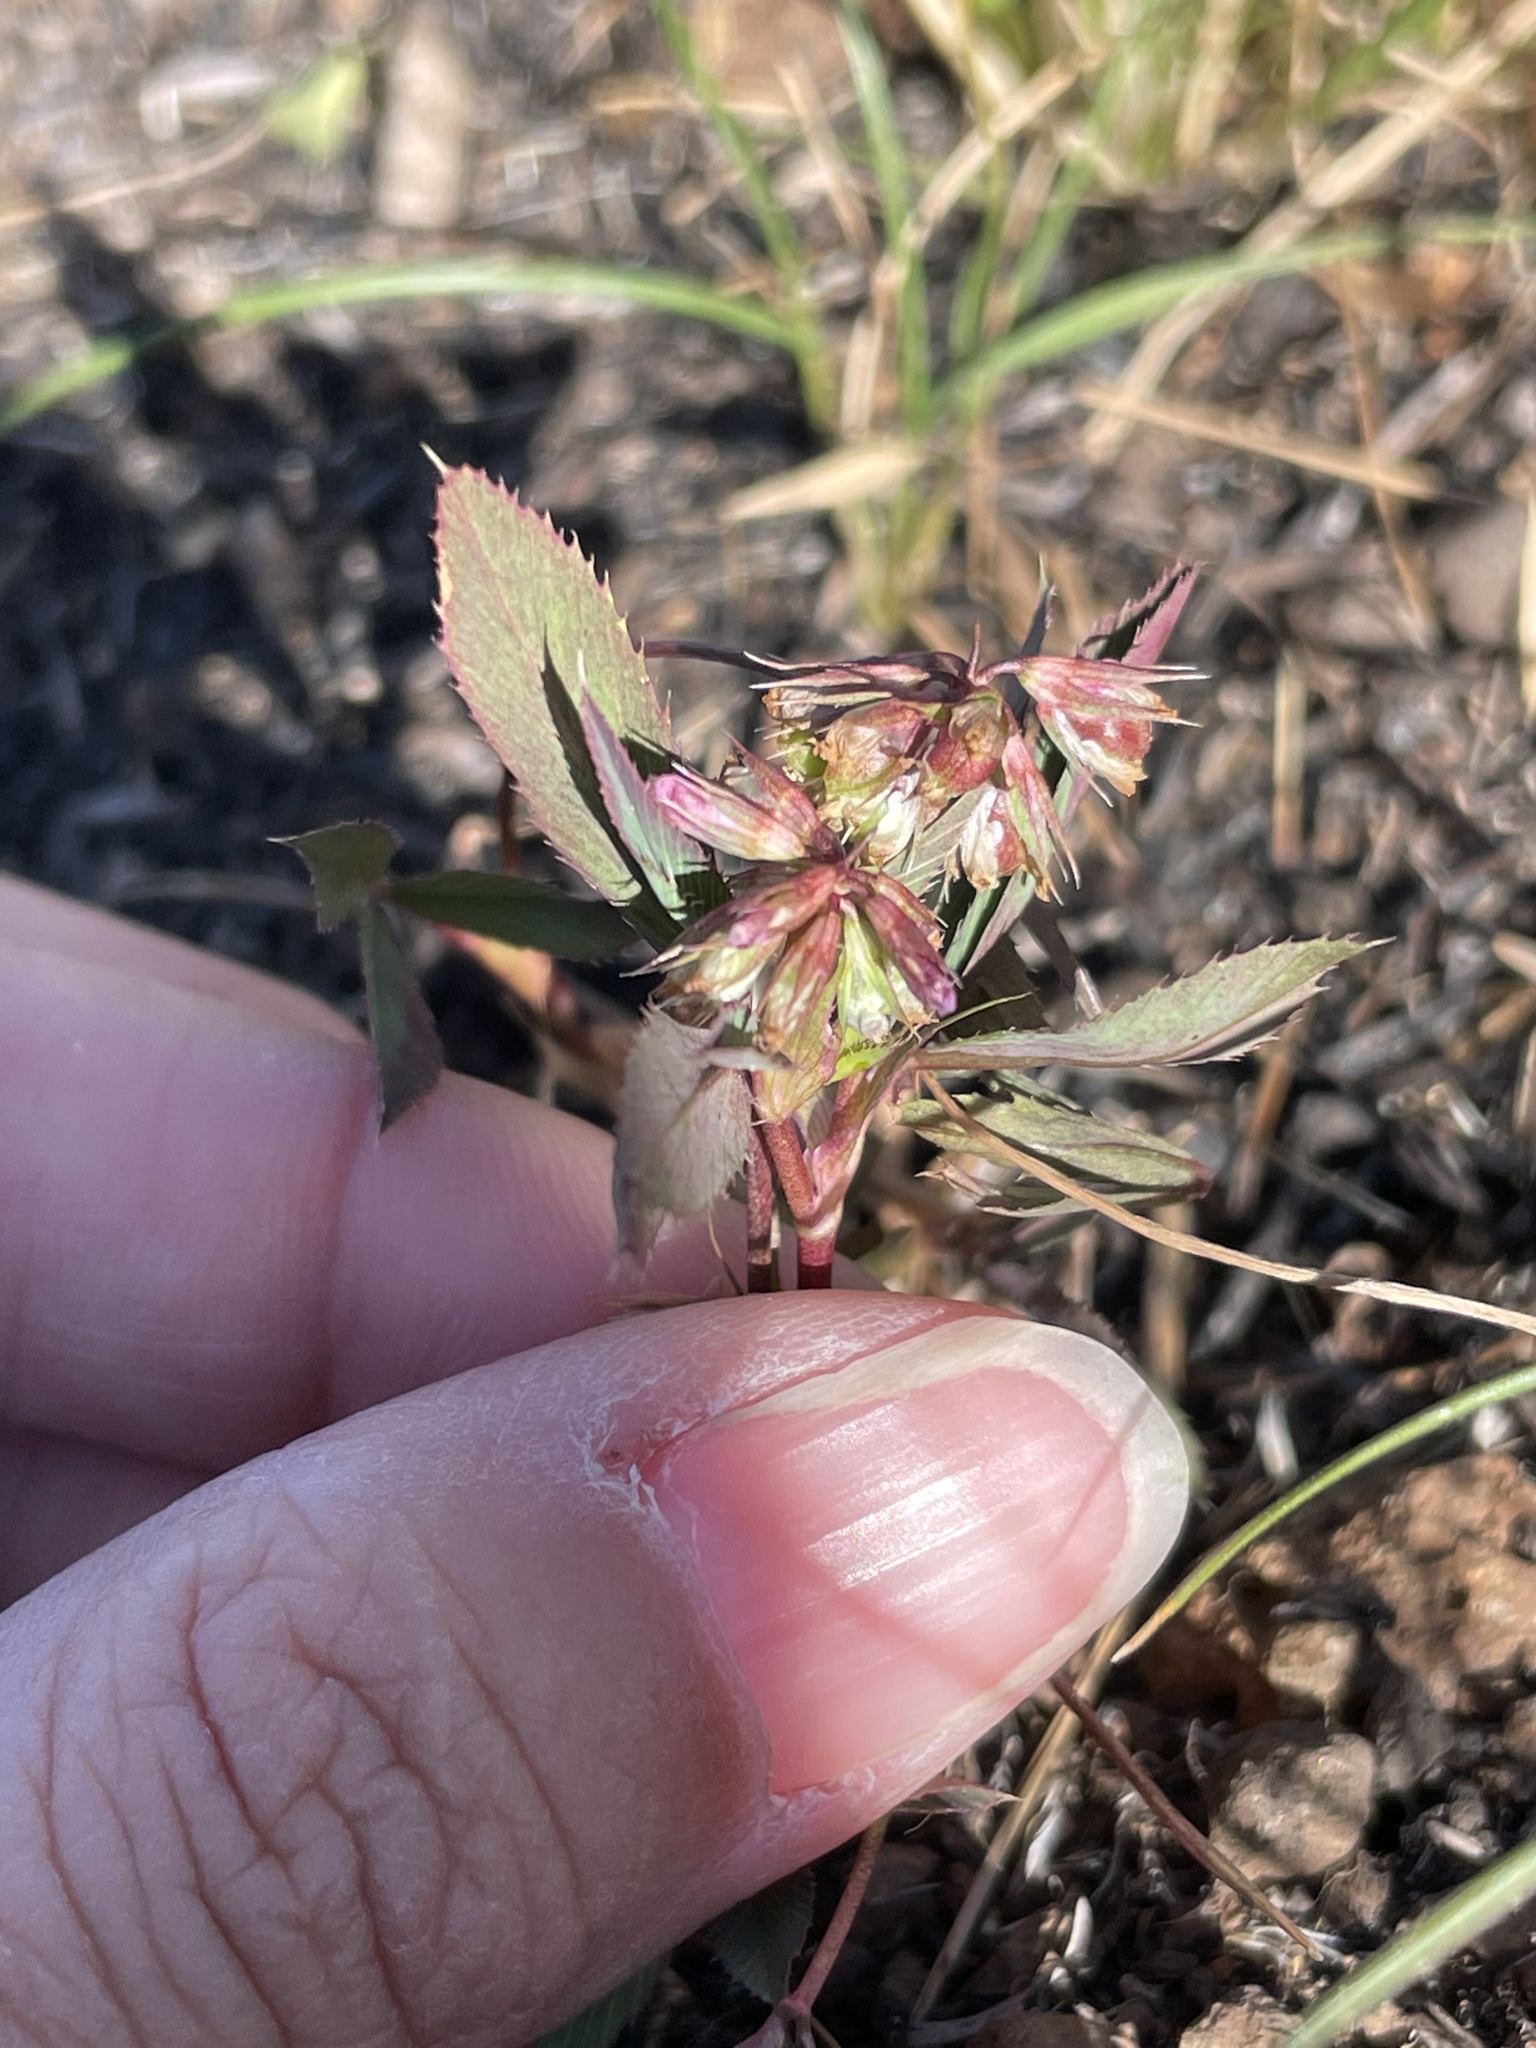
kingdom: Plantae
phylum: Tracheophyta
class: Magnoliopsida
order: Fabales
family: Fabaceae
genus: Trifolium
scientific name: Trifolium palmeri
